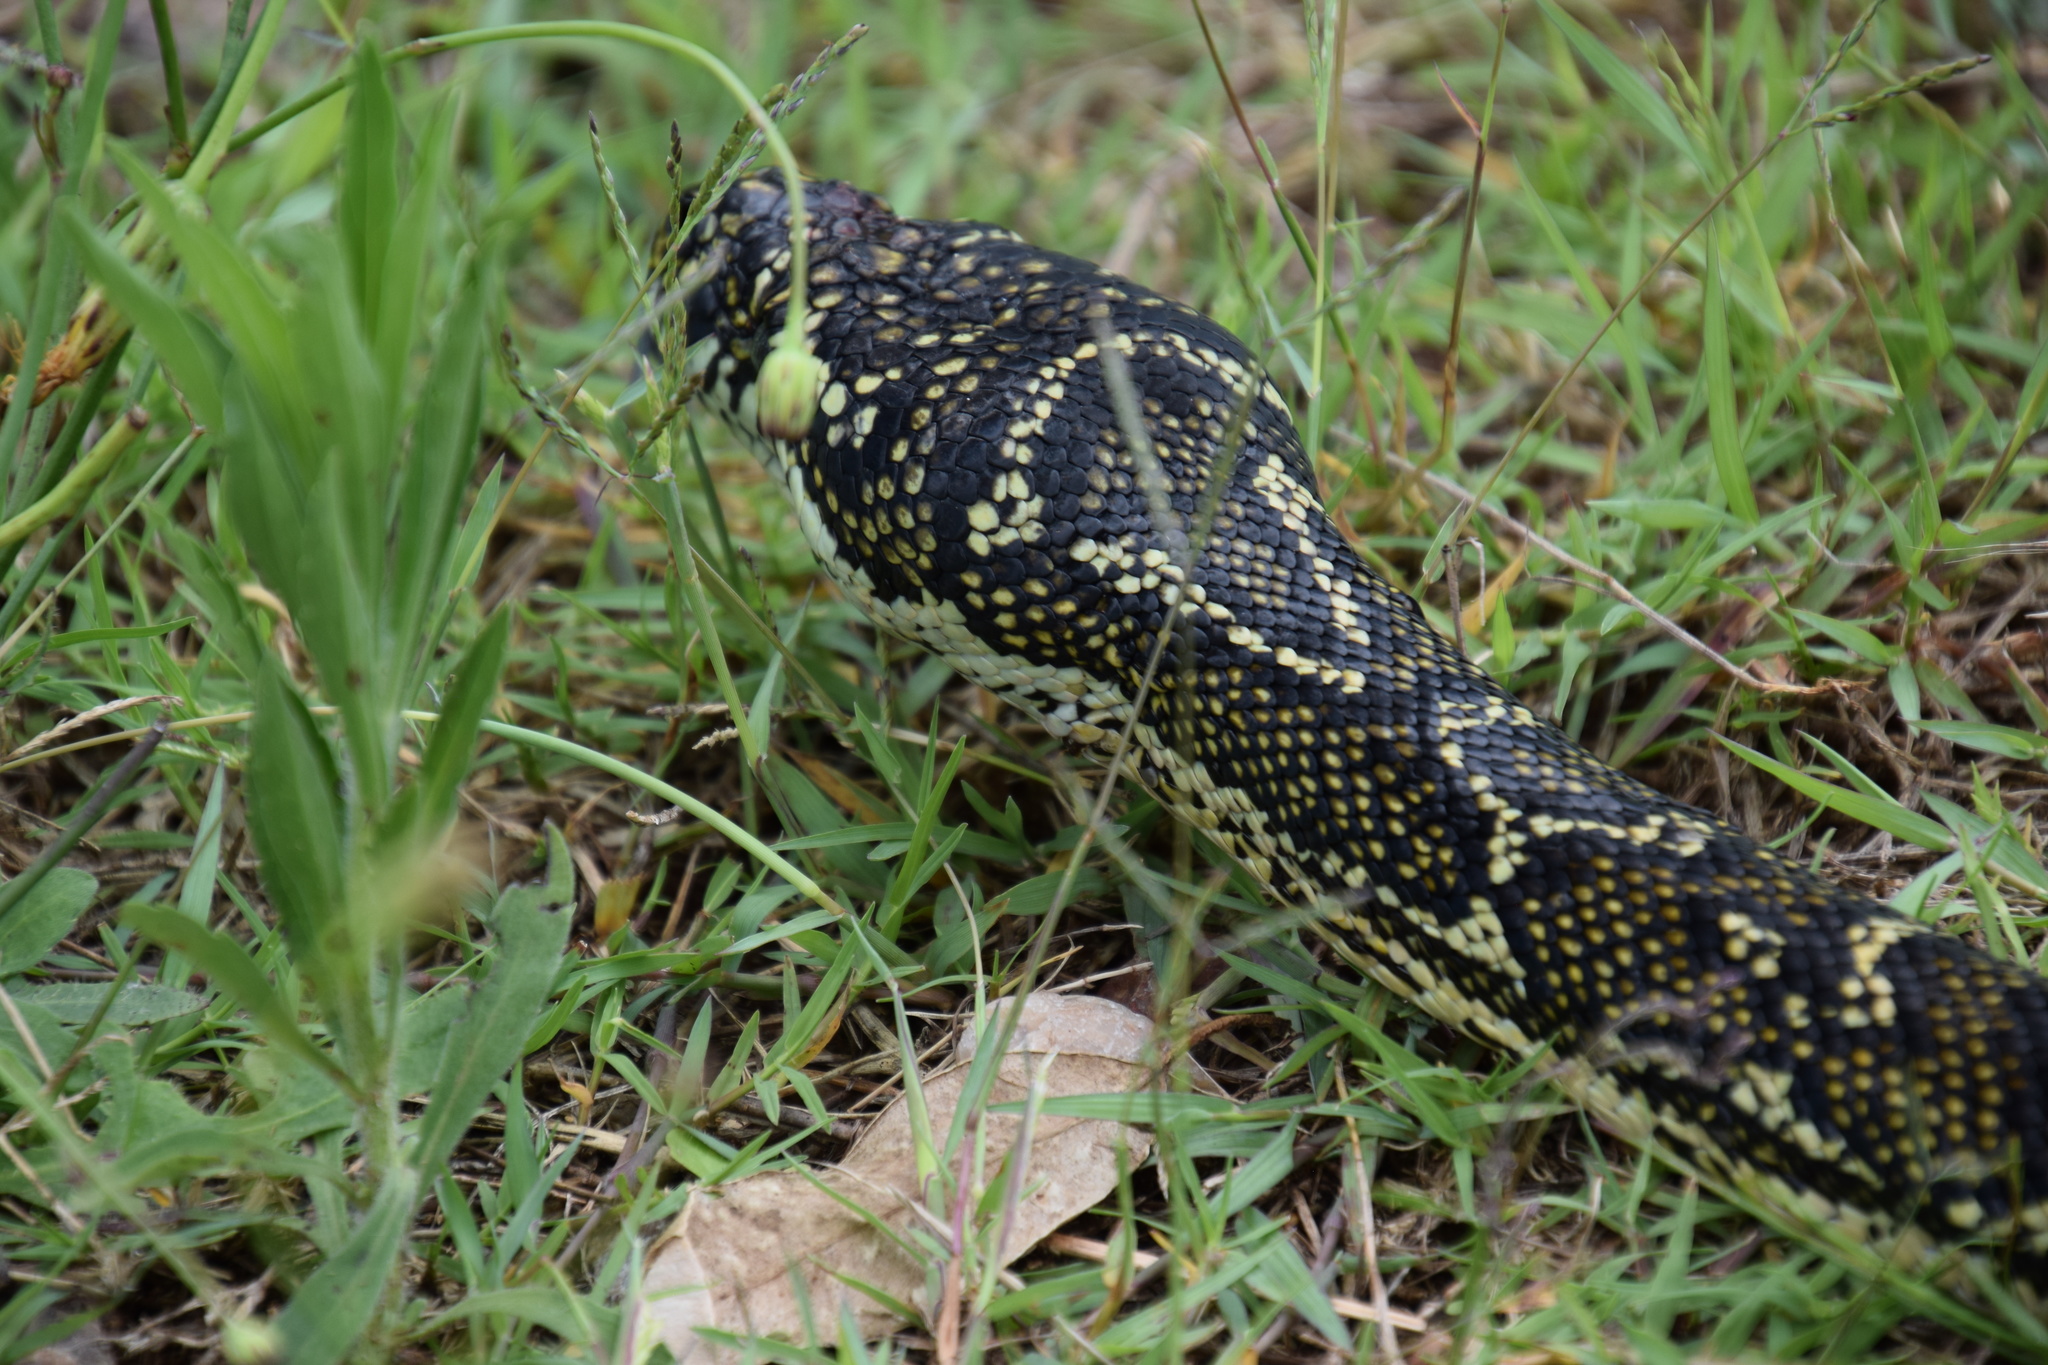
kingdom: Animalia
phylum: Chordata
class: Squamata
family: Pythonidae
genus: Morelia
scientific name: Morelia spilota
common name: Carpet python
